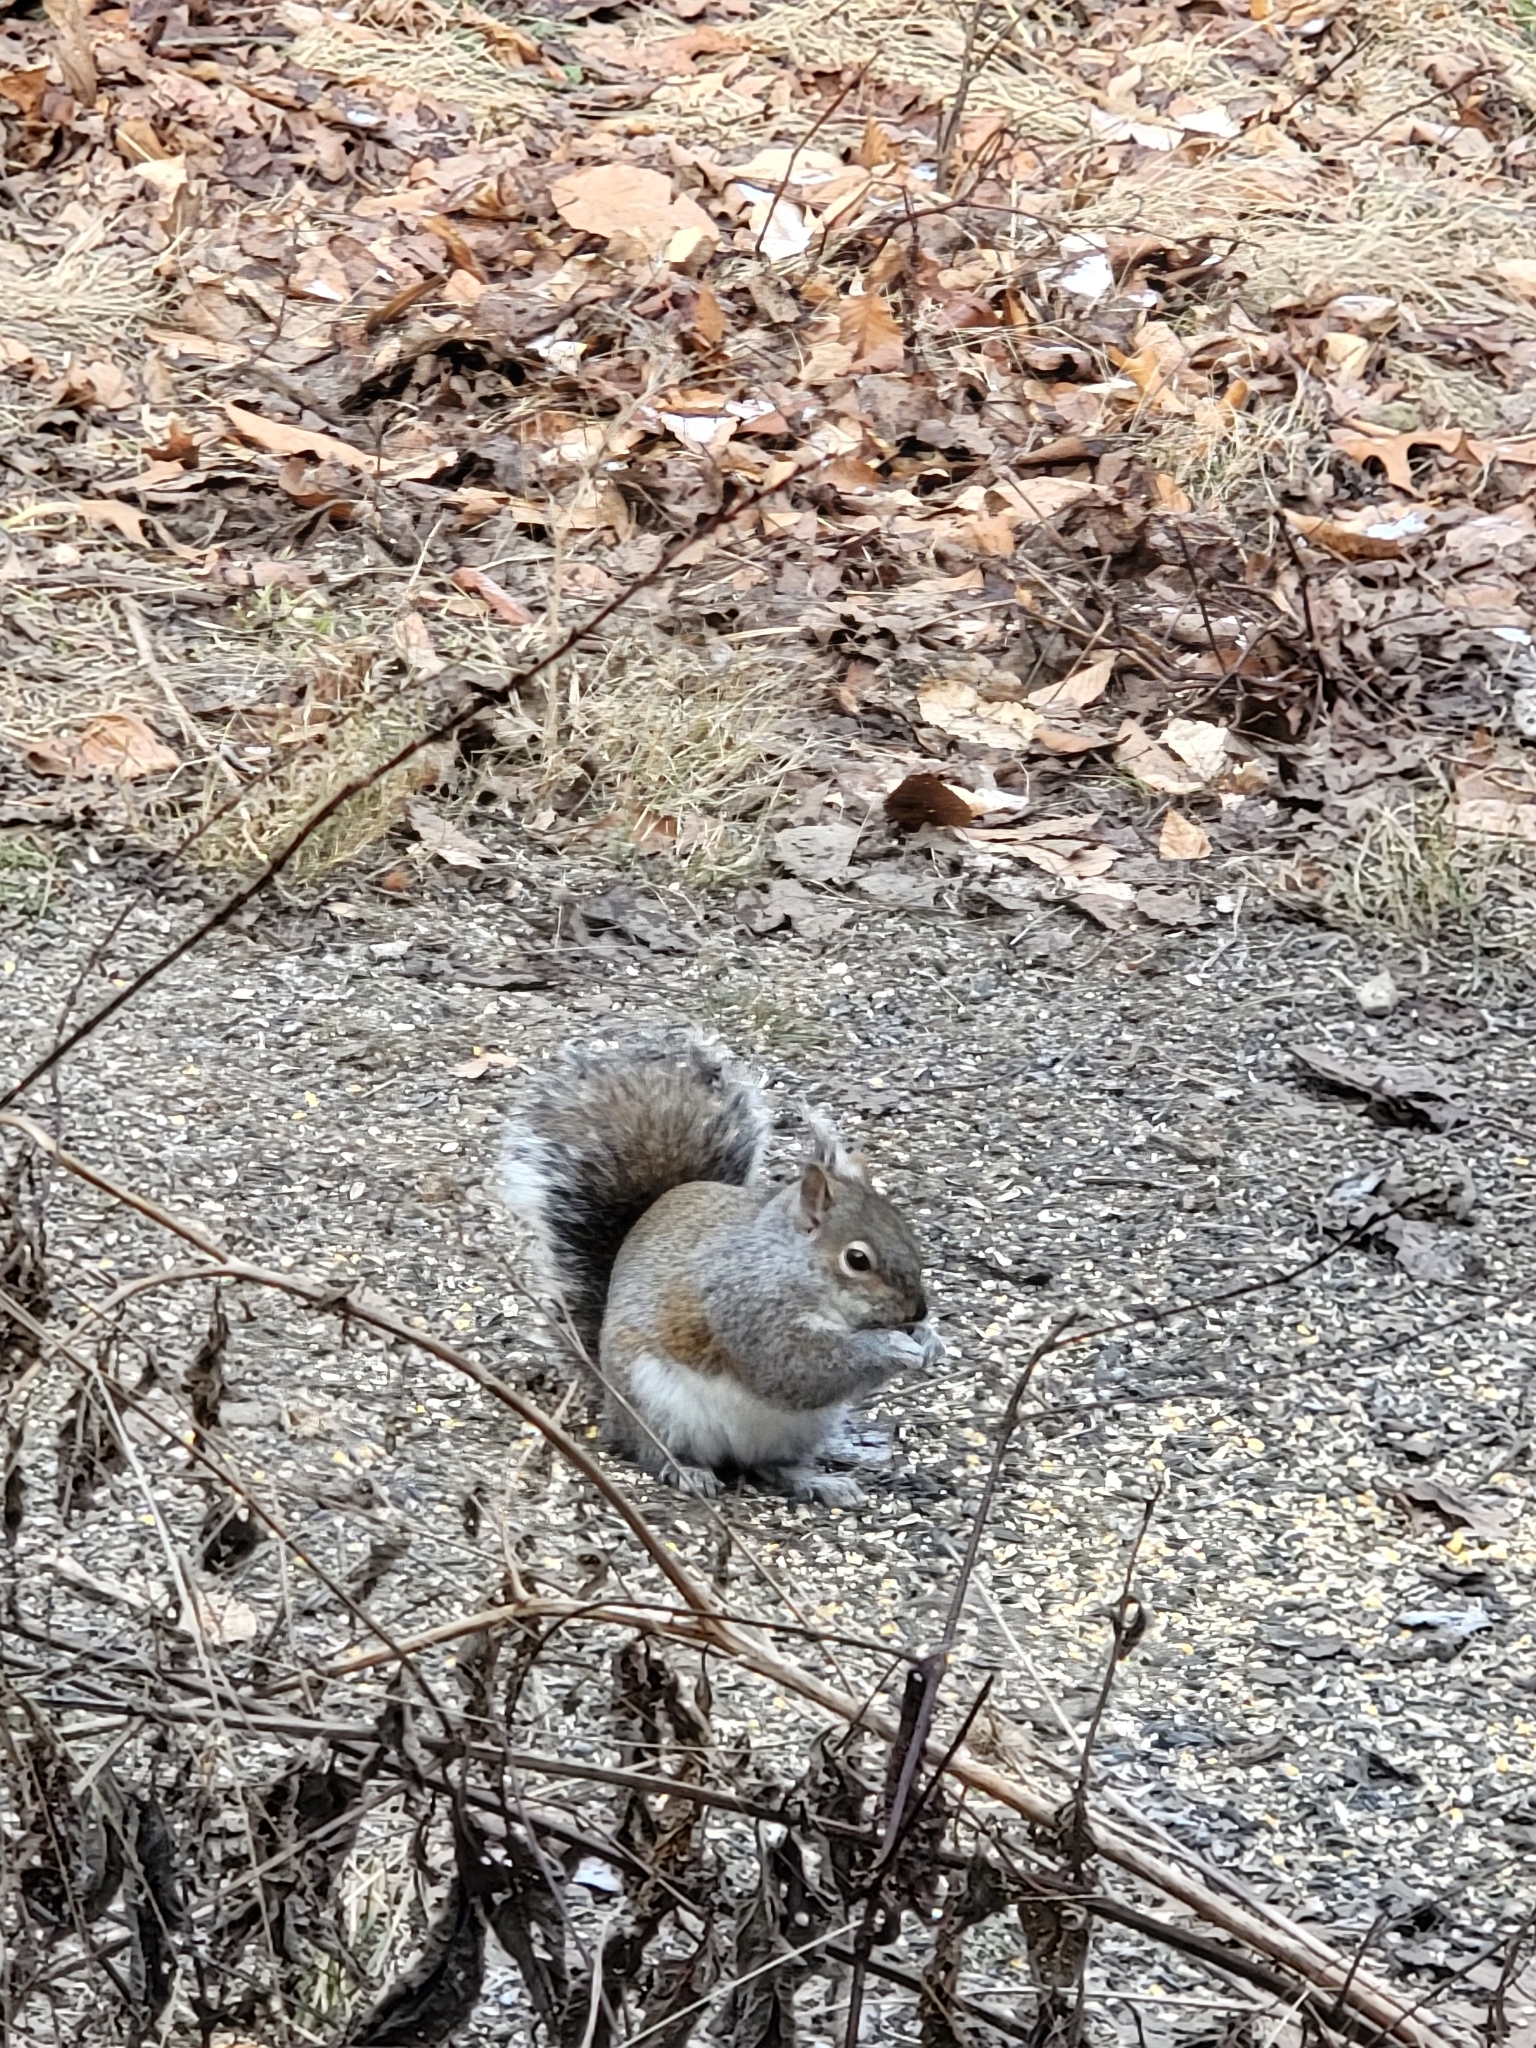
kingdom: Animalia
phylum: Chordata
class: Mammalia
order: Rodentia
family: Sciuridae
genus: Sciurus
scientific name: Sciurus carolinensis
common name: Eastern gray squirrel
